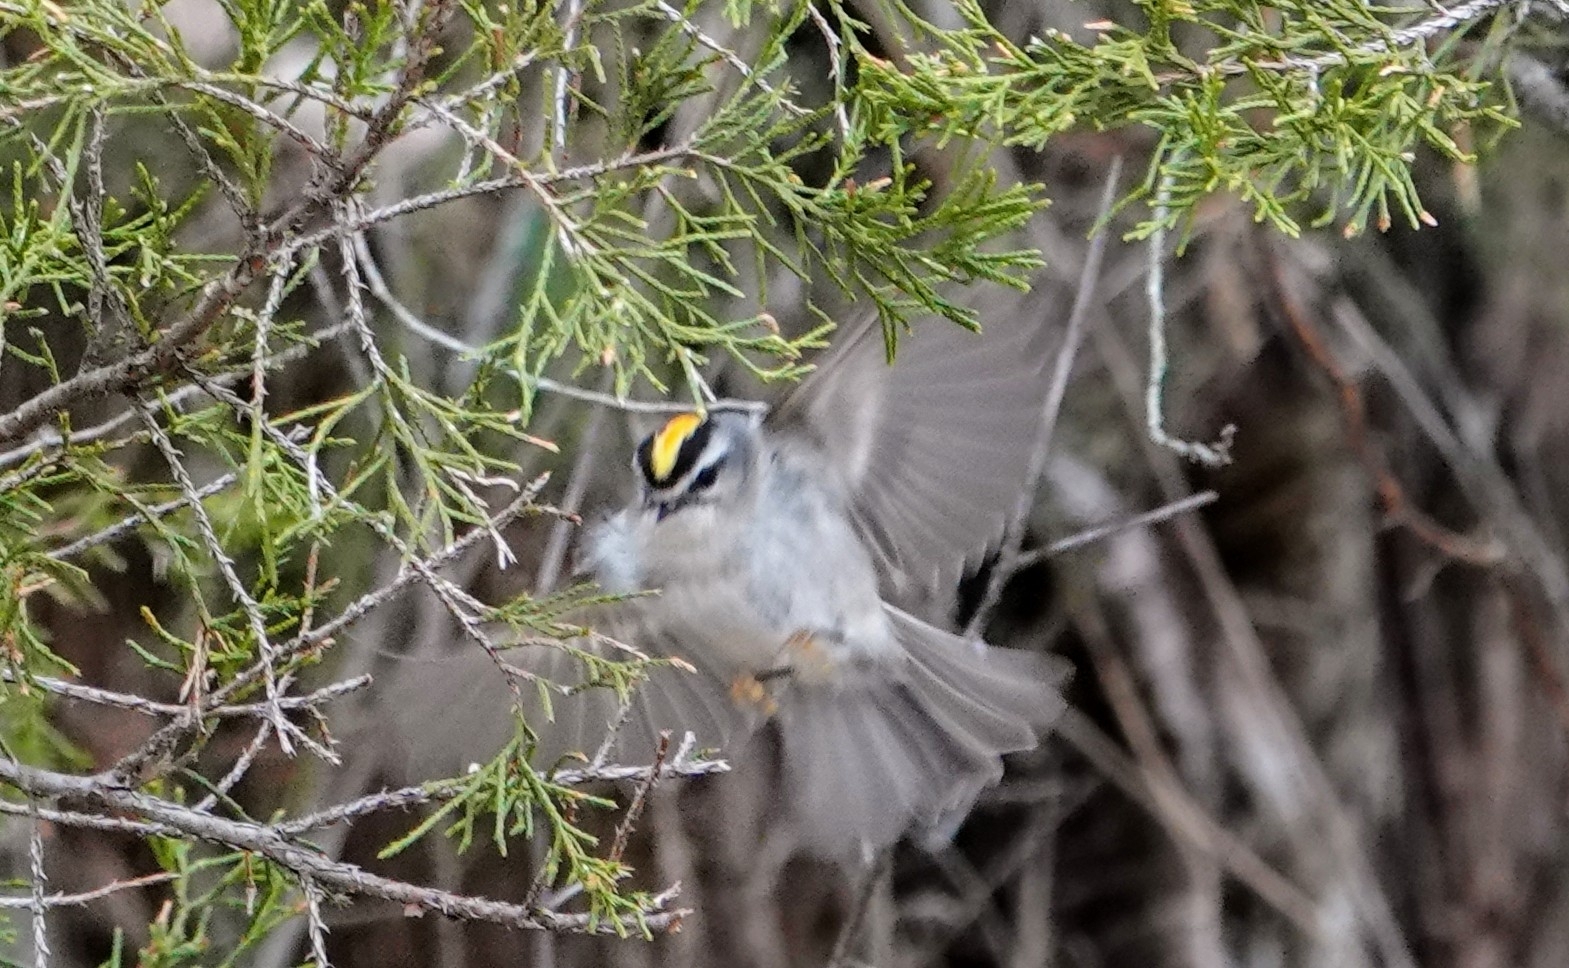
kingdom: Animalia
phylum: Chordata
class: Aves
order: Passeriformes
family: Regulidae
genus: Regulus
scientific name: Regulus satrapa
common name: Golden-crowned kinglet
